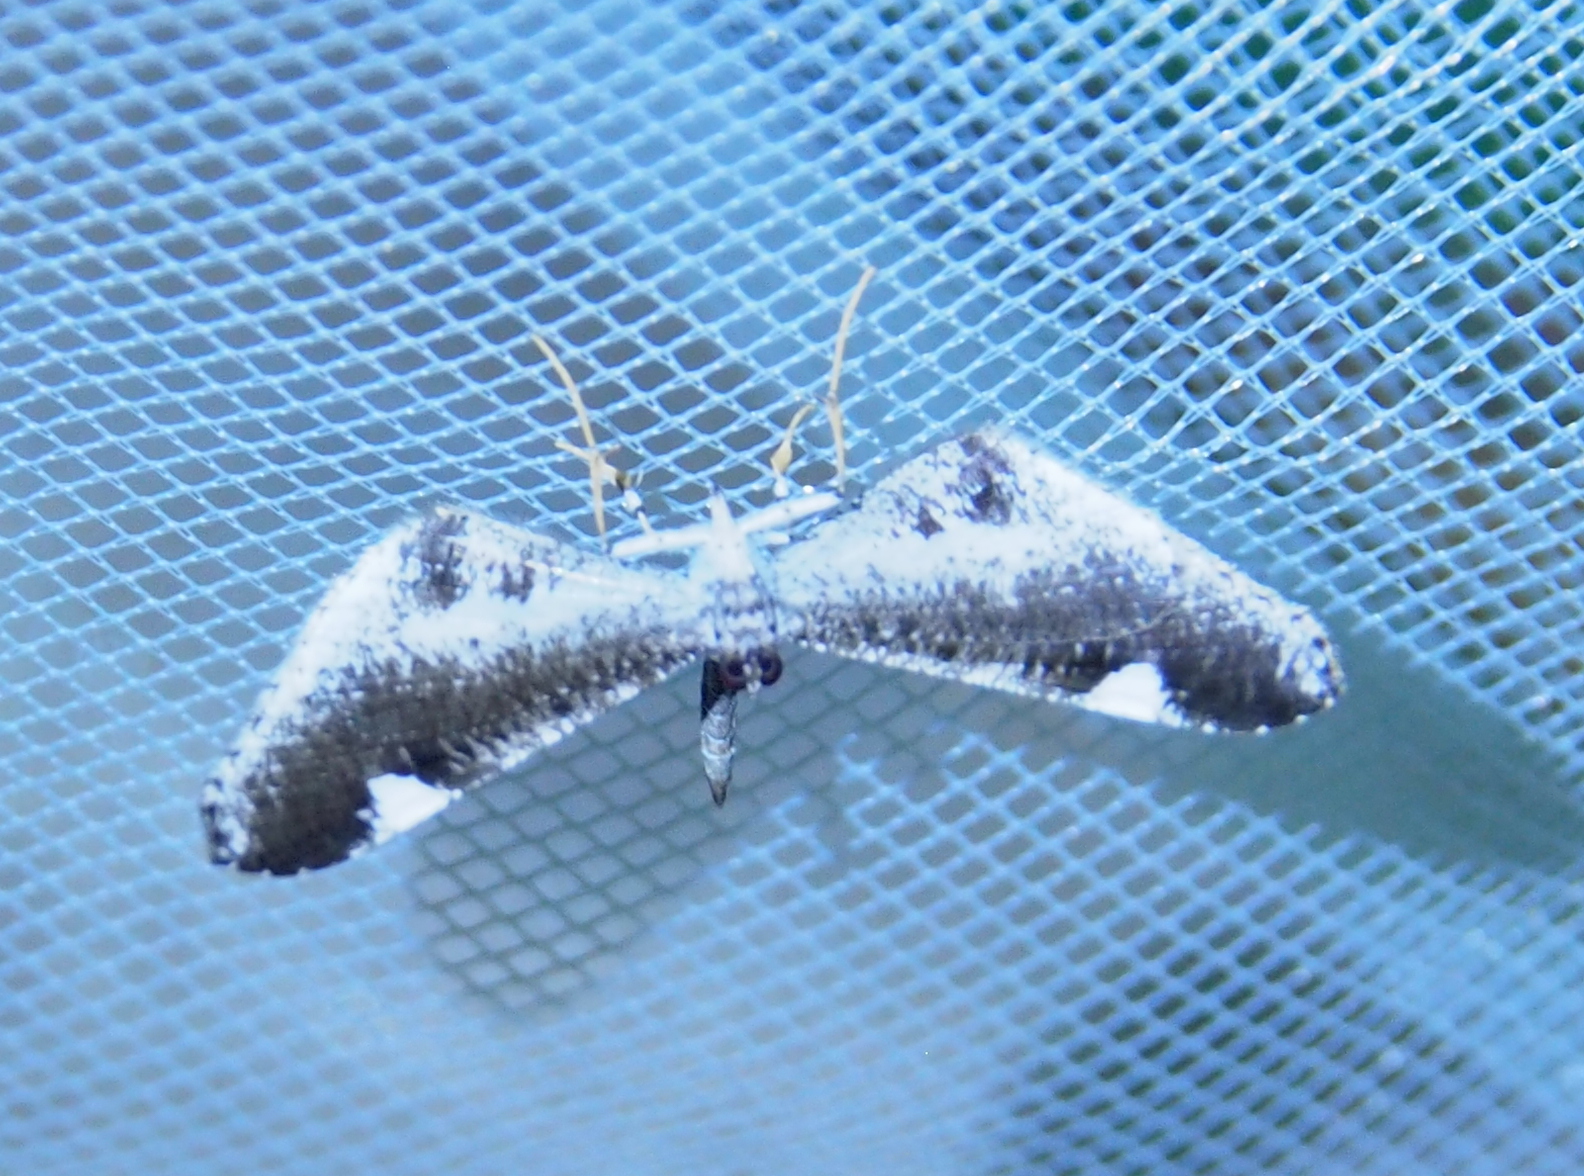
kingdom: Animalia
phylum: Arthropoda
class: Insecta
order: Lepidoptera
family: Hedylidae
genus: Macrosoma
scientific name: Macrosoma heliconiaria
